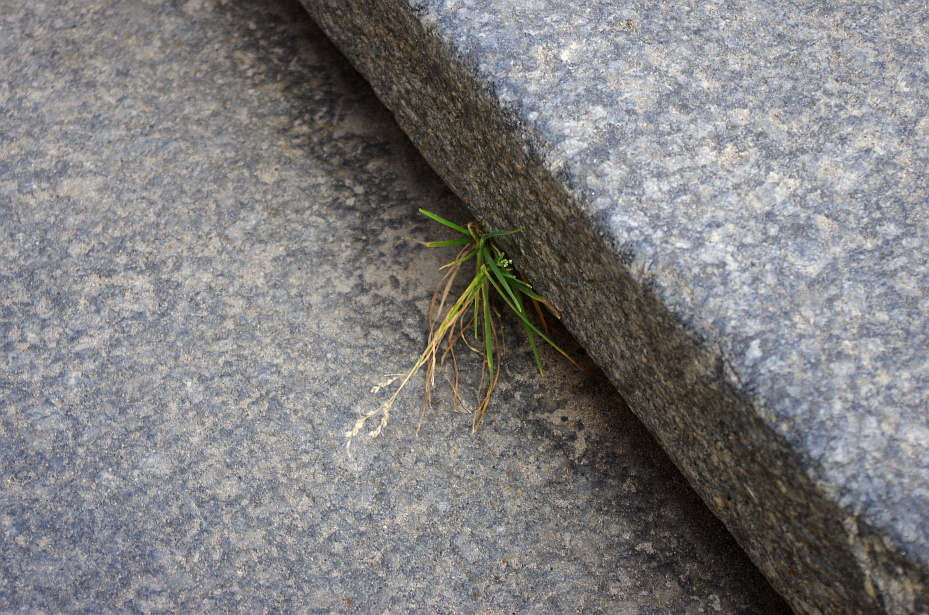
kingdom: Plantae
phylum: Tracheophyta
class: Liliopsida
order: Poales
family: Poaceae
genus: Poa
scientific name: Poa annua
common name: Annual bluegrass
